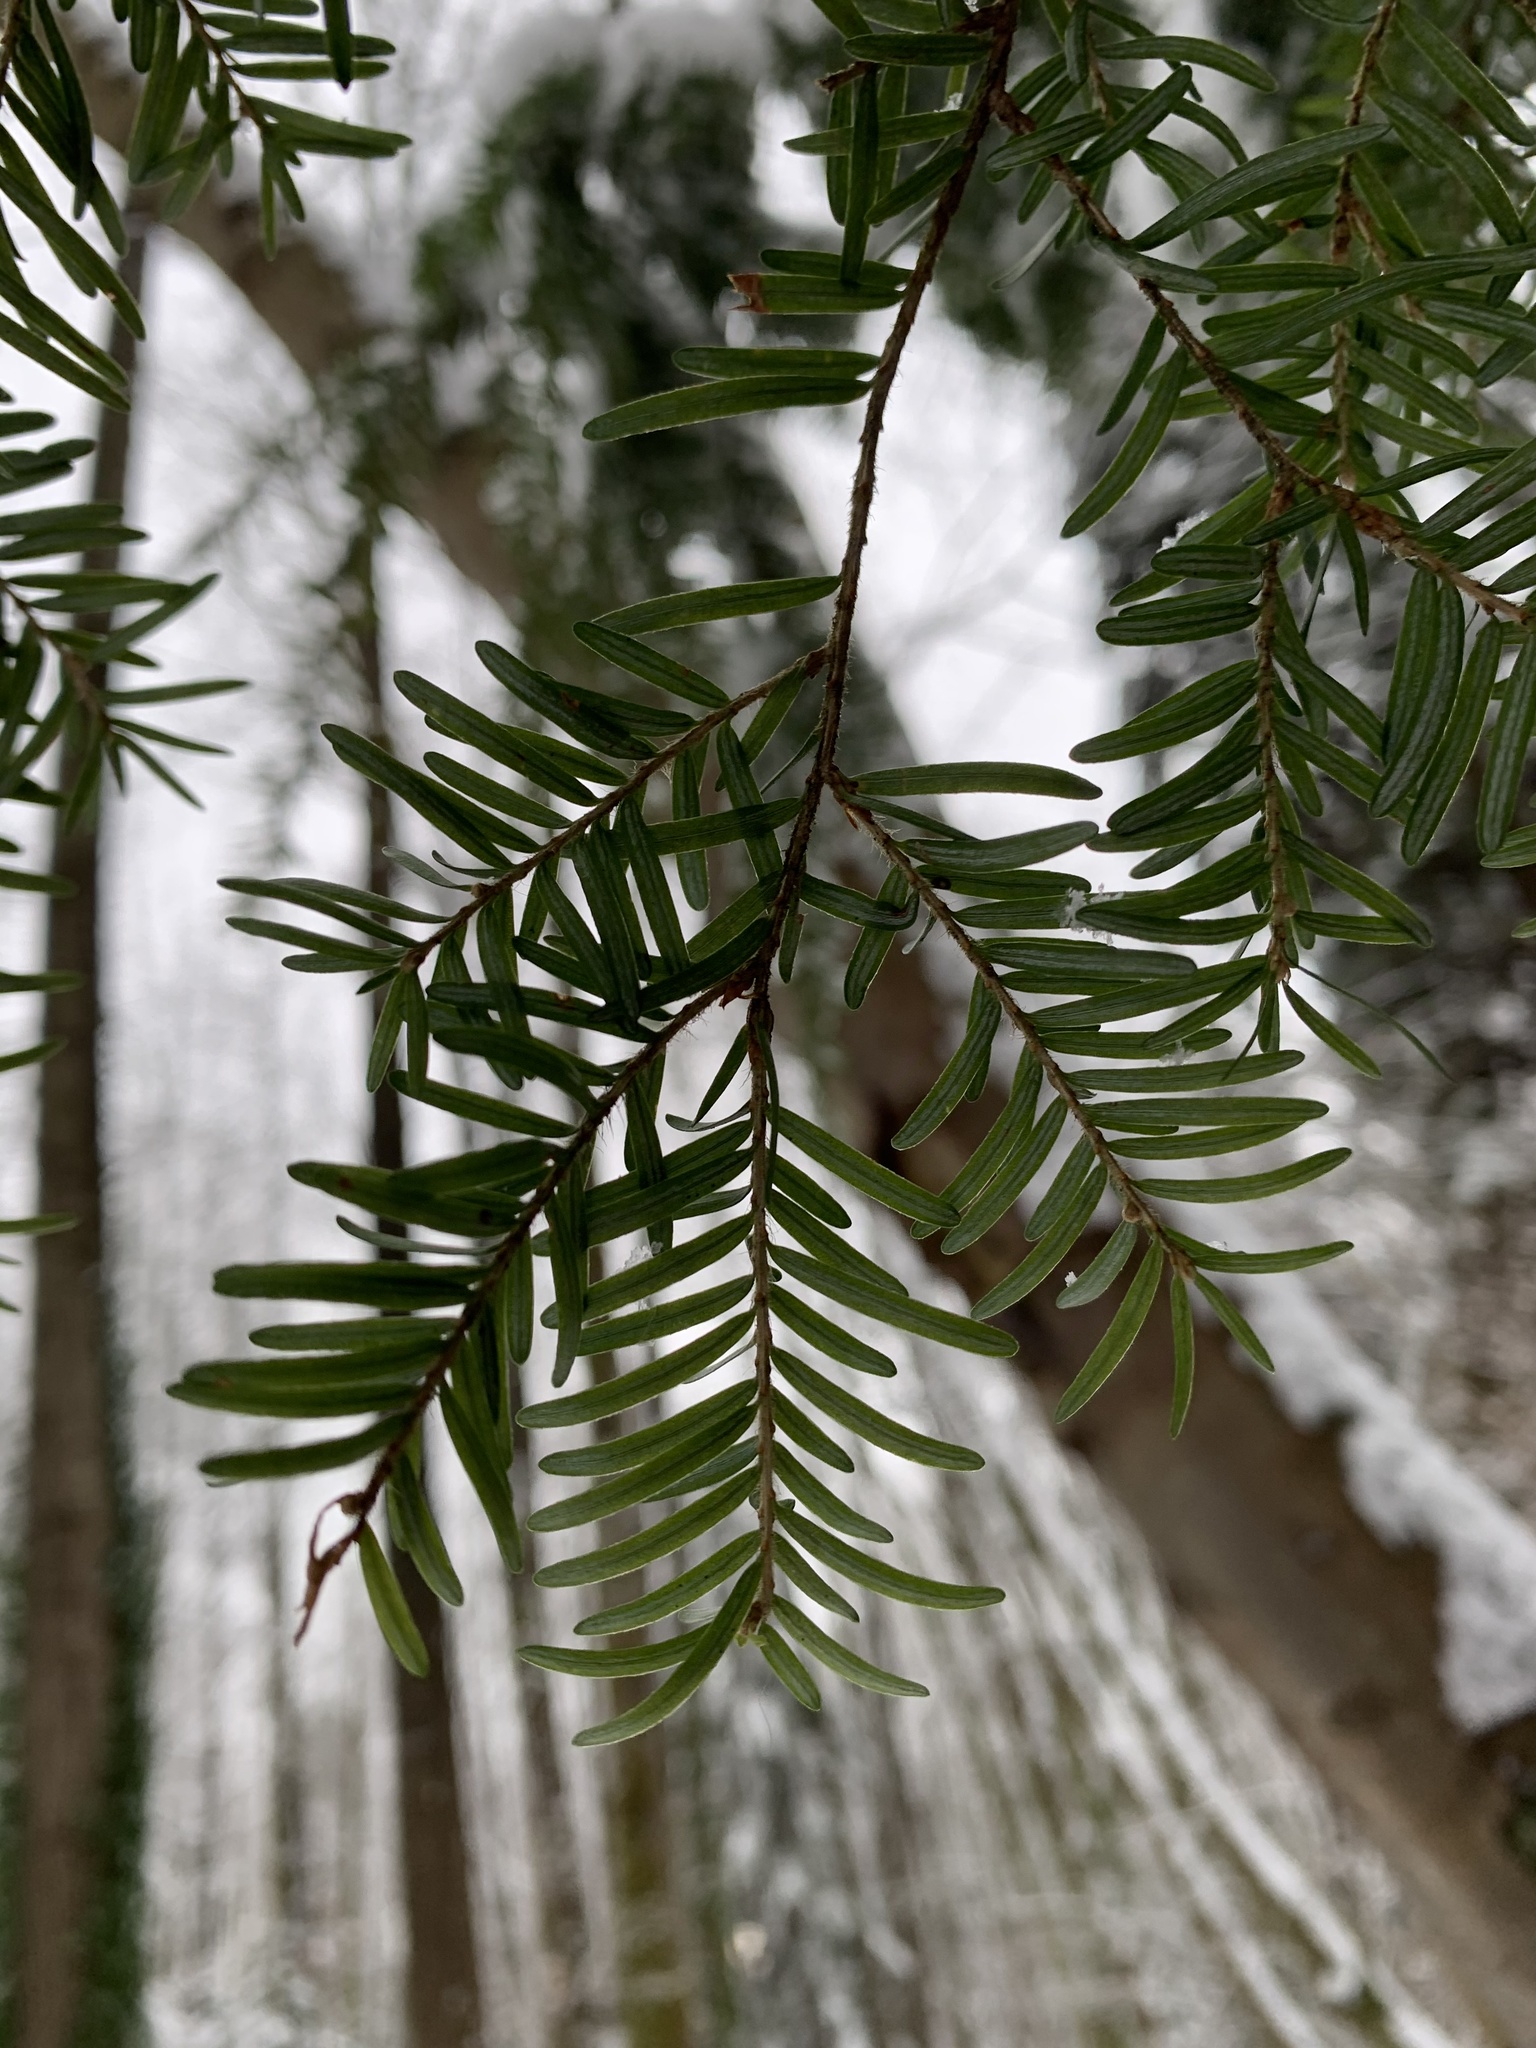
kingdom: Plantae
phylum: Tracheophyta
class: Pinopsida
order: Pinales
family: Pinaceae
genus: Tsuga
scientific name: Tsuga heterophylla
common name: Western hemlock
